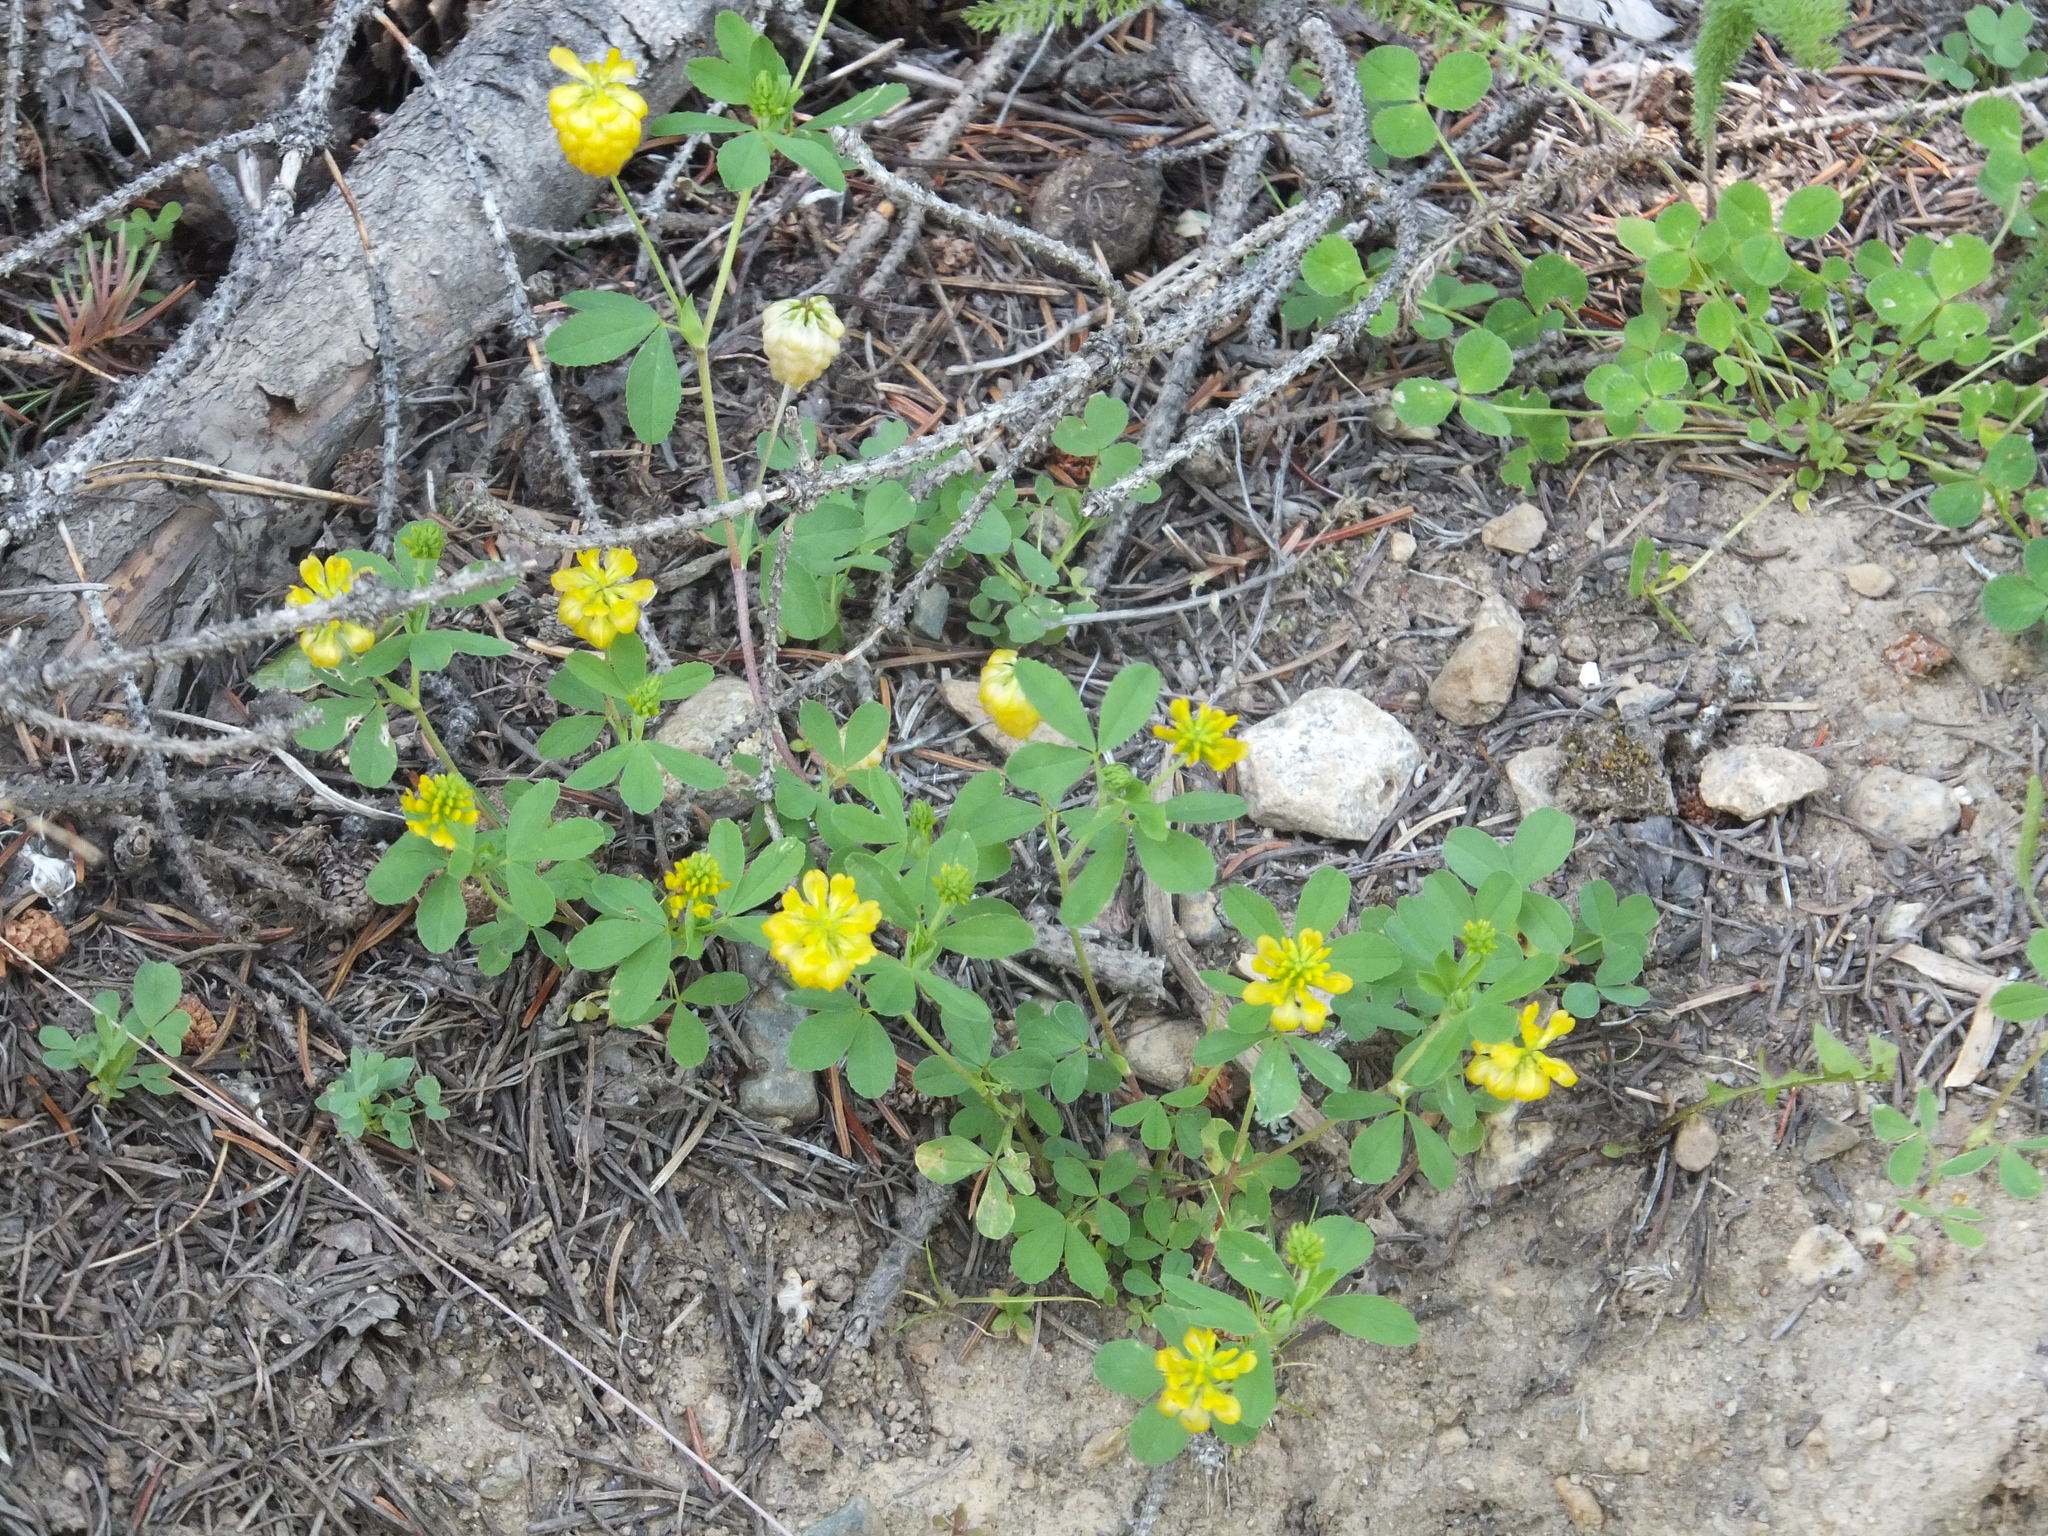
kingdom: Plantae
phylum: Tracheophyta
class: Magnoliopsida
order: Fabales
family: Fabaceae
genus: Trifolium
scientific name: Trifolium aureum
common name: Golden clover
